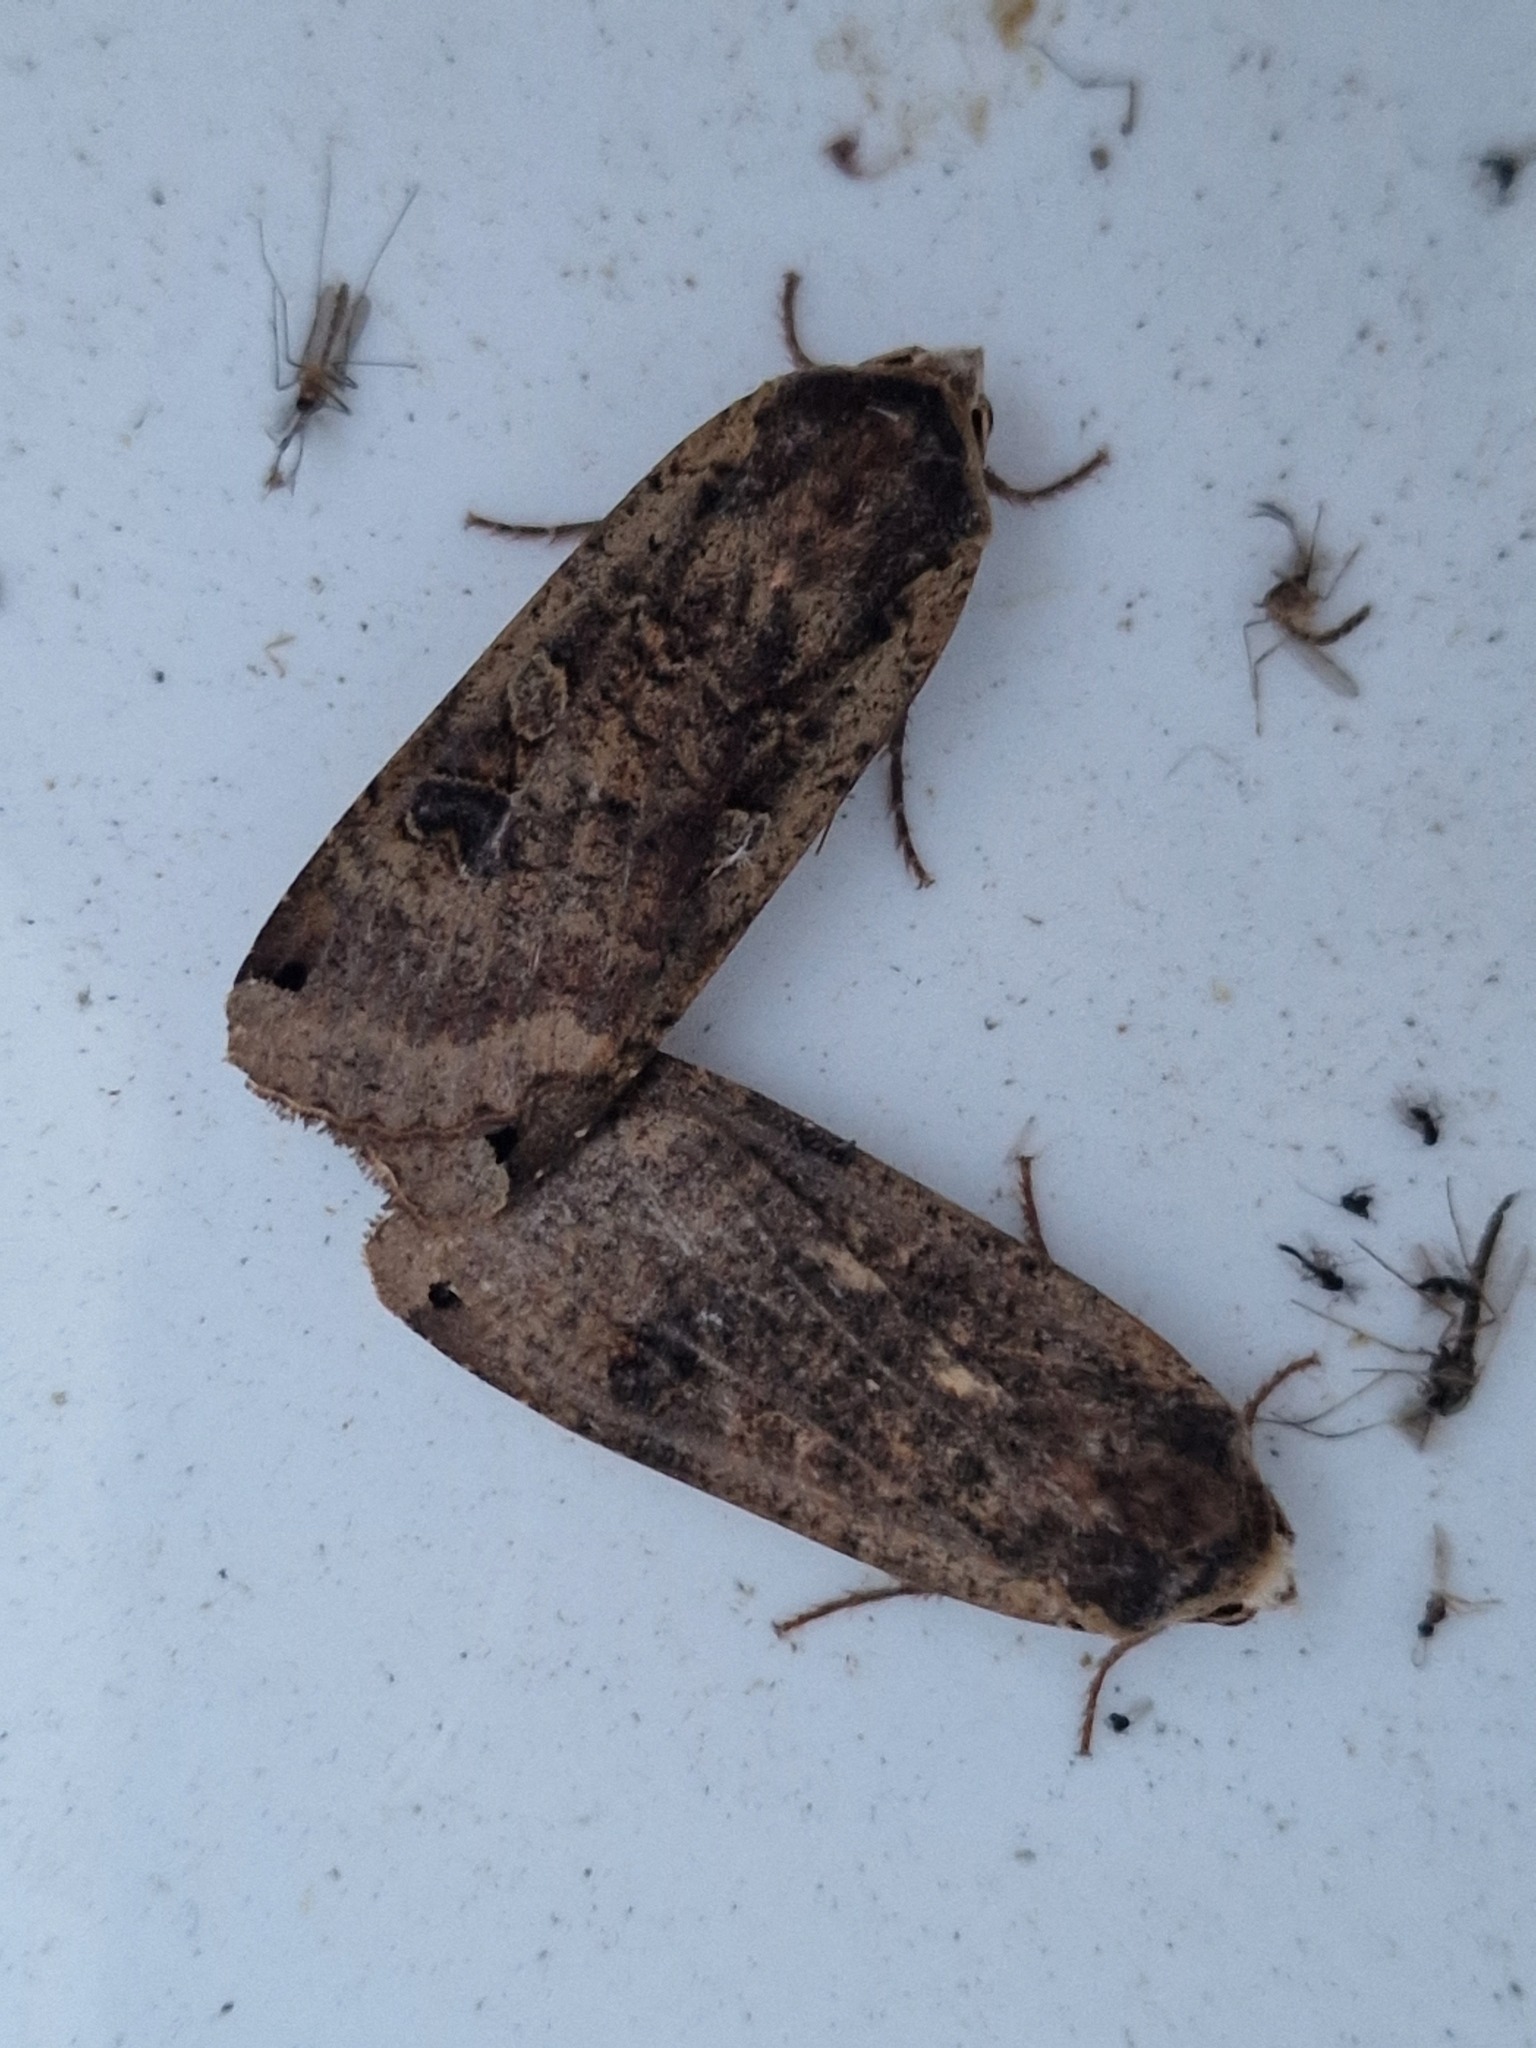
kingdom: Animalia
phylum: Arthropoda
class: Insecta
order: Lepidoptera
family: Noctuidae
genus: Noctua
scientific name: Noctua pronuba
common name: Large yellow underwing
